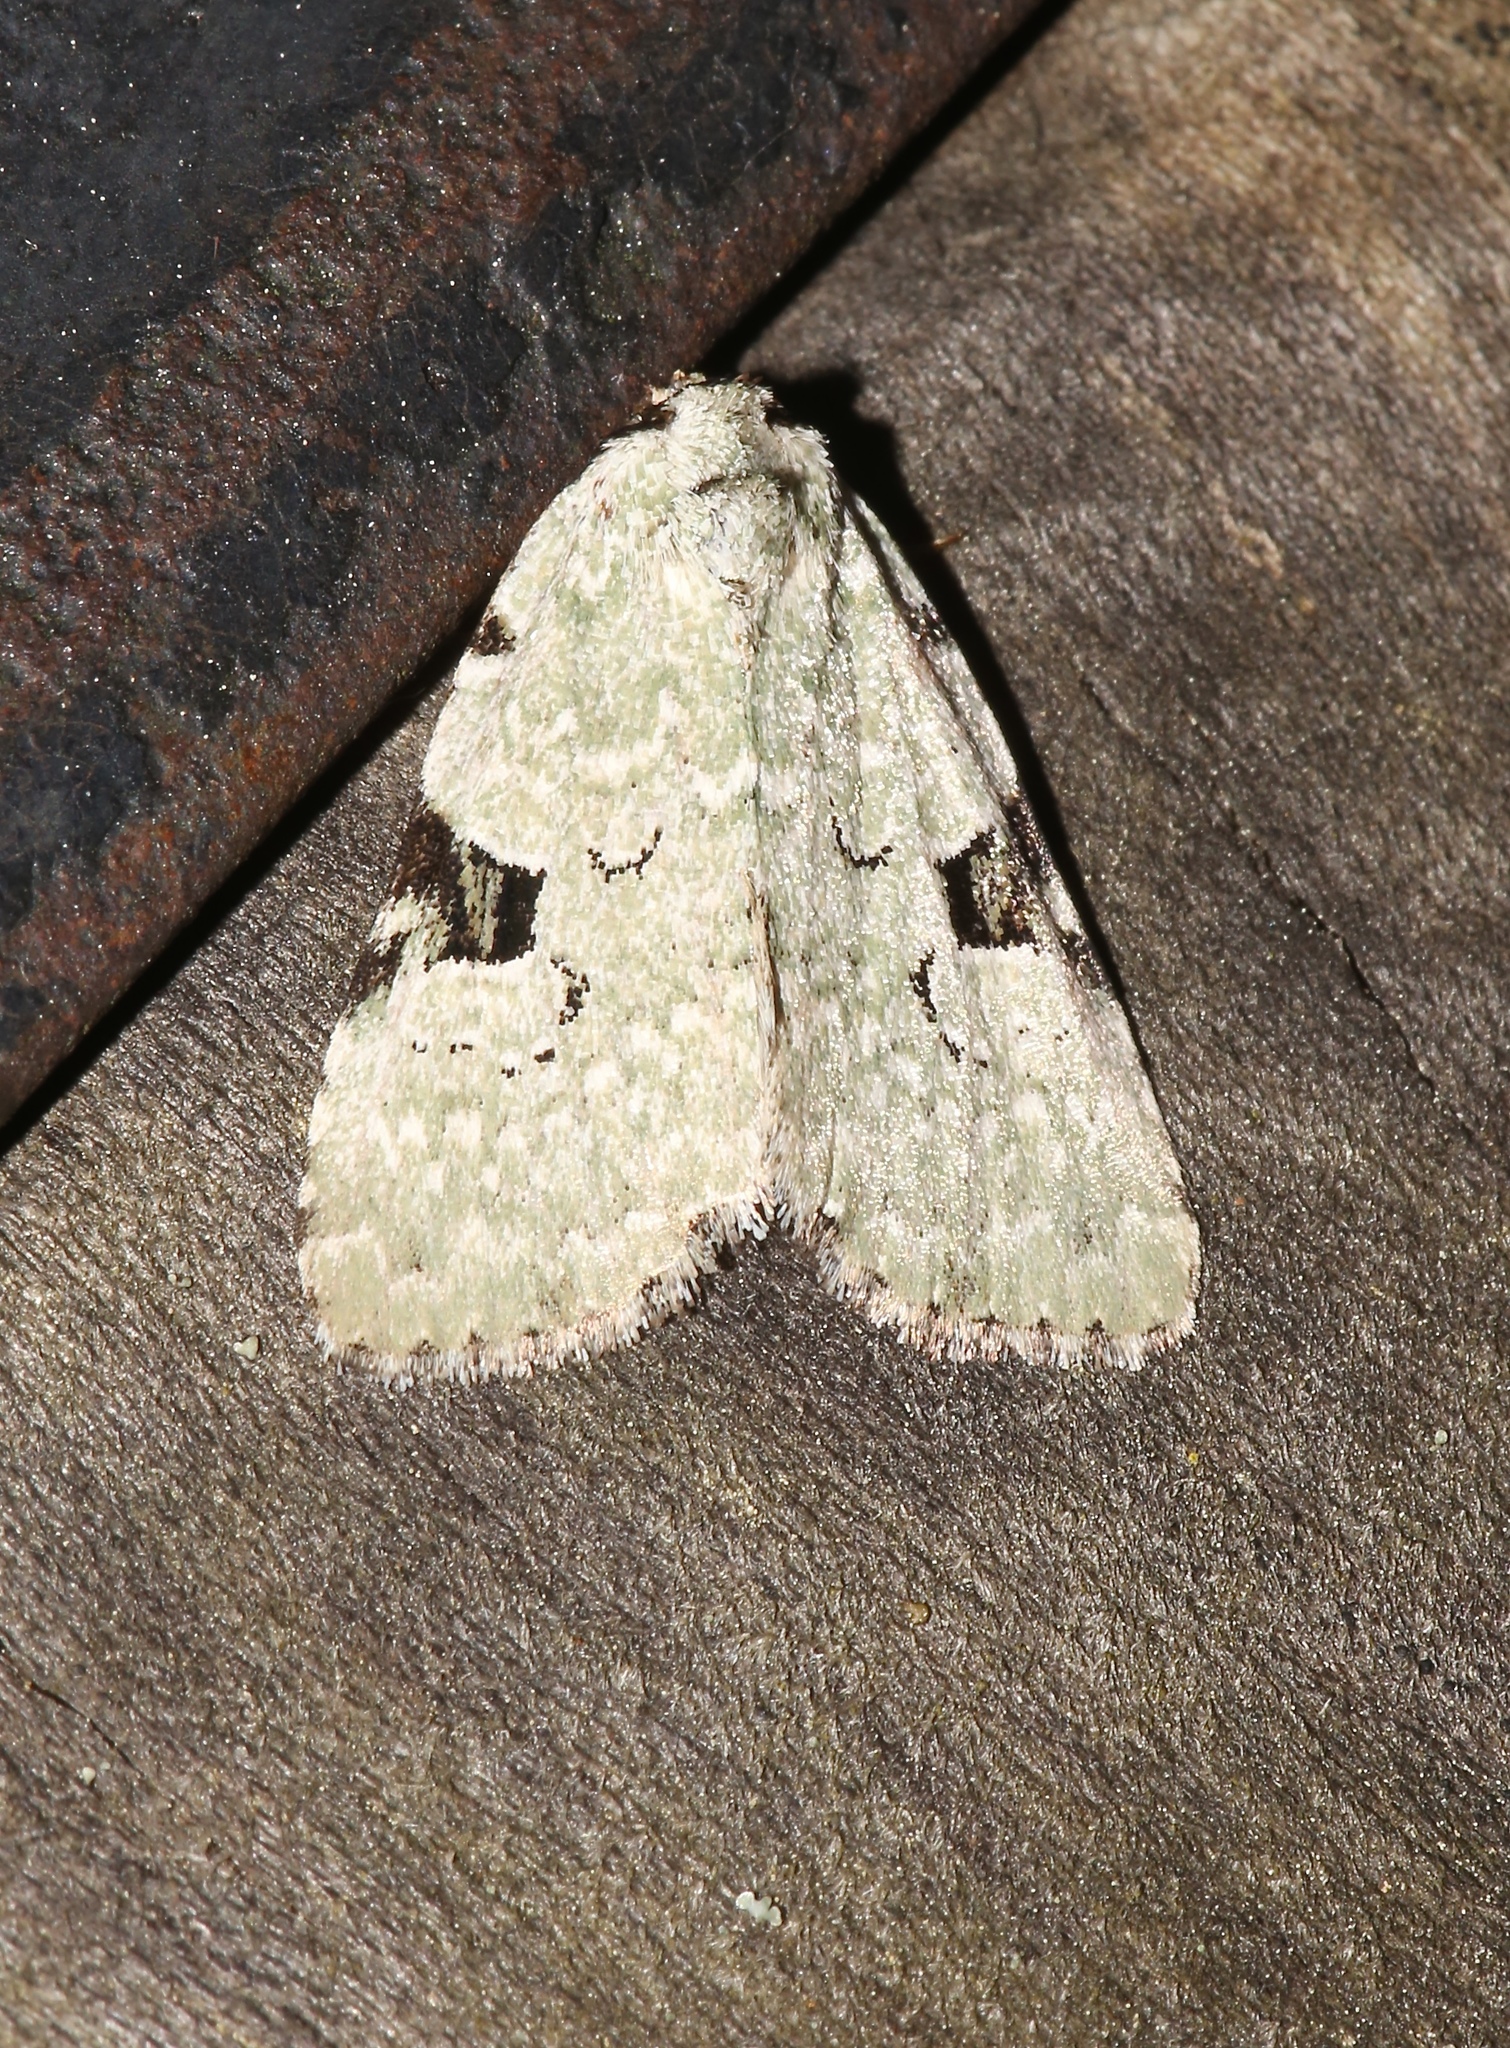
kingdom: Animalia
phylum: Arthropoda
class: Insecta
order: Lepidoptera
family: Noctuidae
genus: Leuconycta
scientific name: Leuconycta diphteroides
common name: Green leuconycta moth
